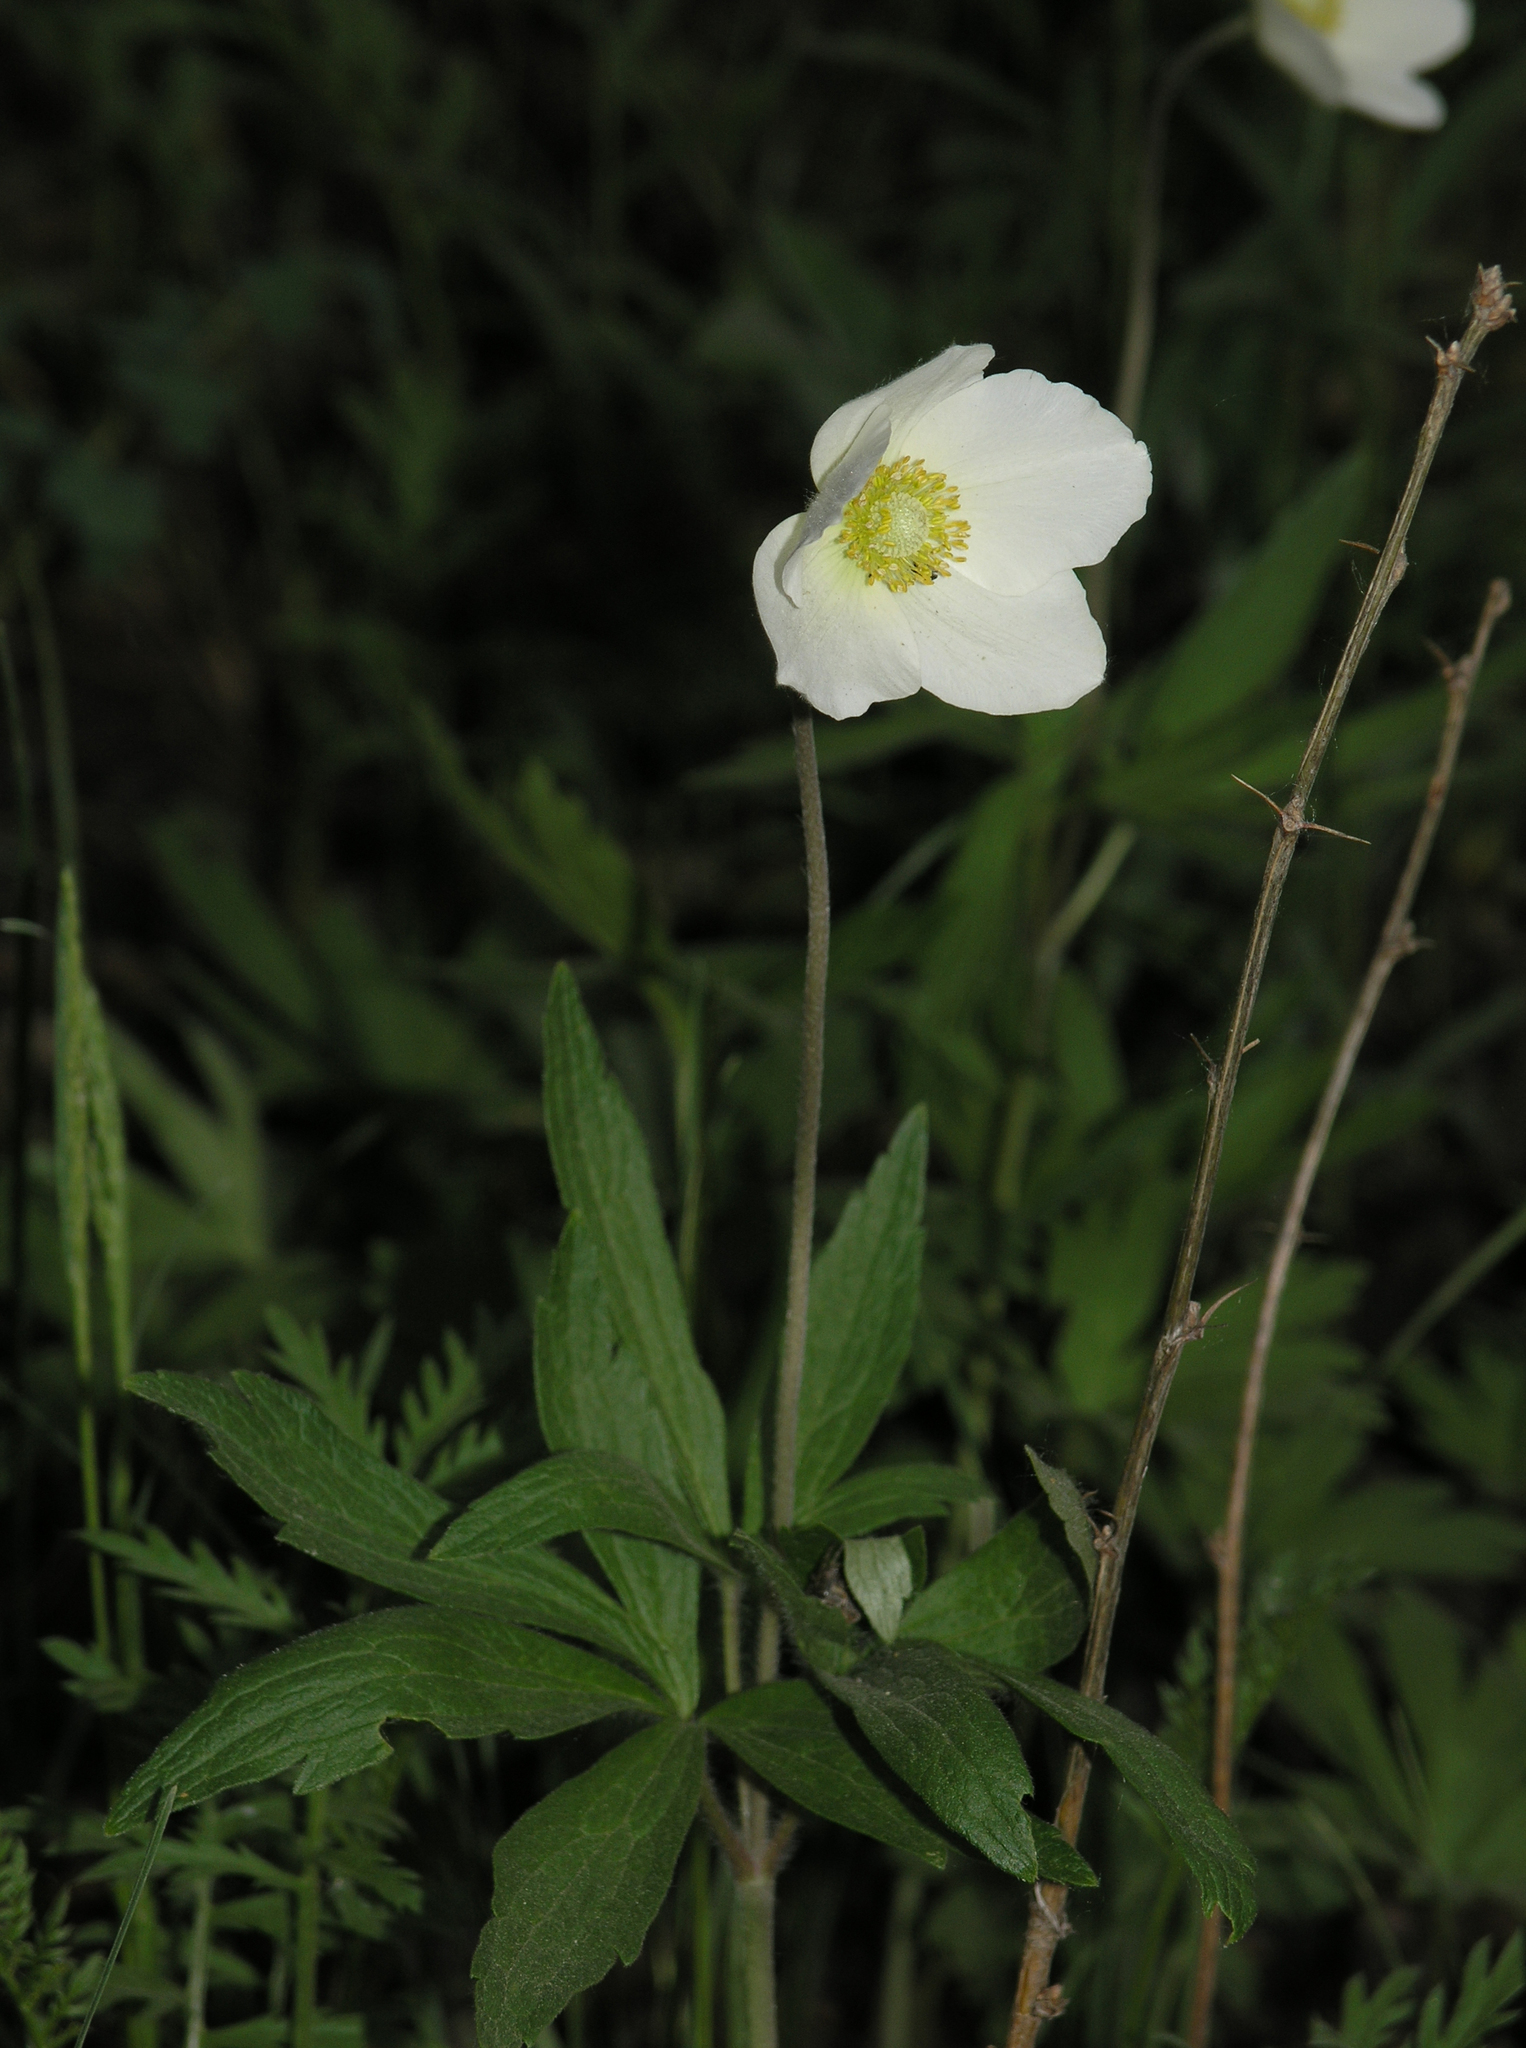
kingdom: Plantae
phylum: Tracheophyta
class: Magnoliopsida
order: Ranunculales
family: Ranunculaceae
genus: Anemone
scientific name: Anemone sylvestris
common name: Snowdrop anemone
